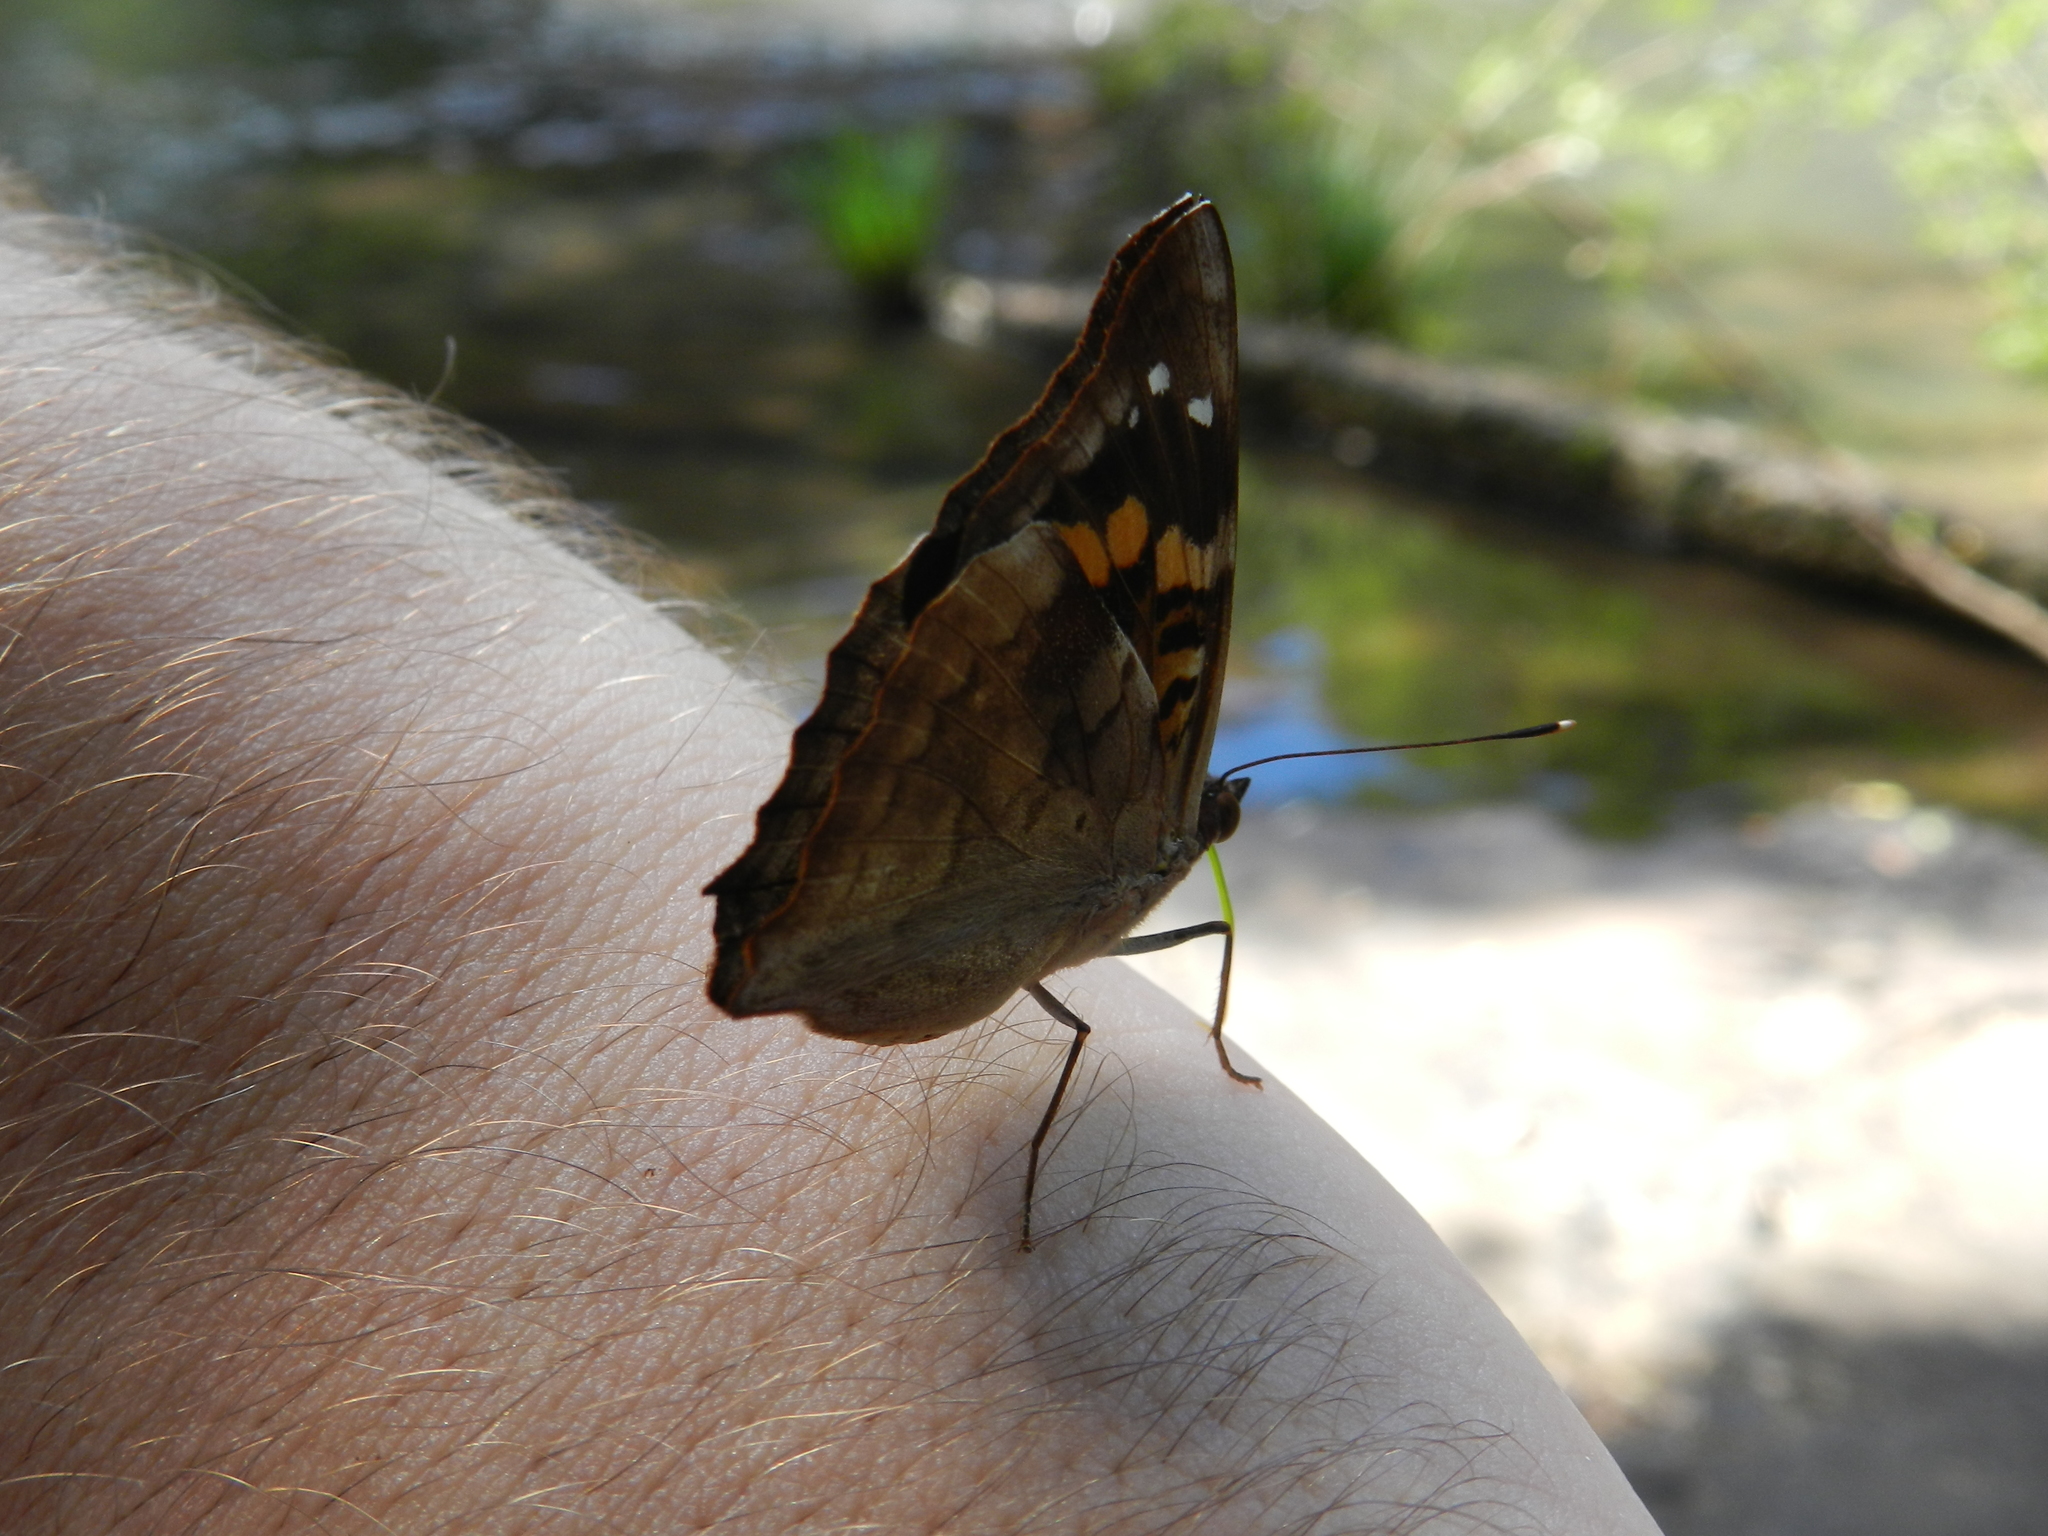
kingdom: Animalia
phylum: Arthropoda
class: Insecta
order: Lepidoptera
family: Nymphalidae
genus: Doxocopa
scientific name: Doxocopa agathina
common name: Agathina emperor
